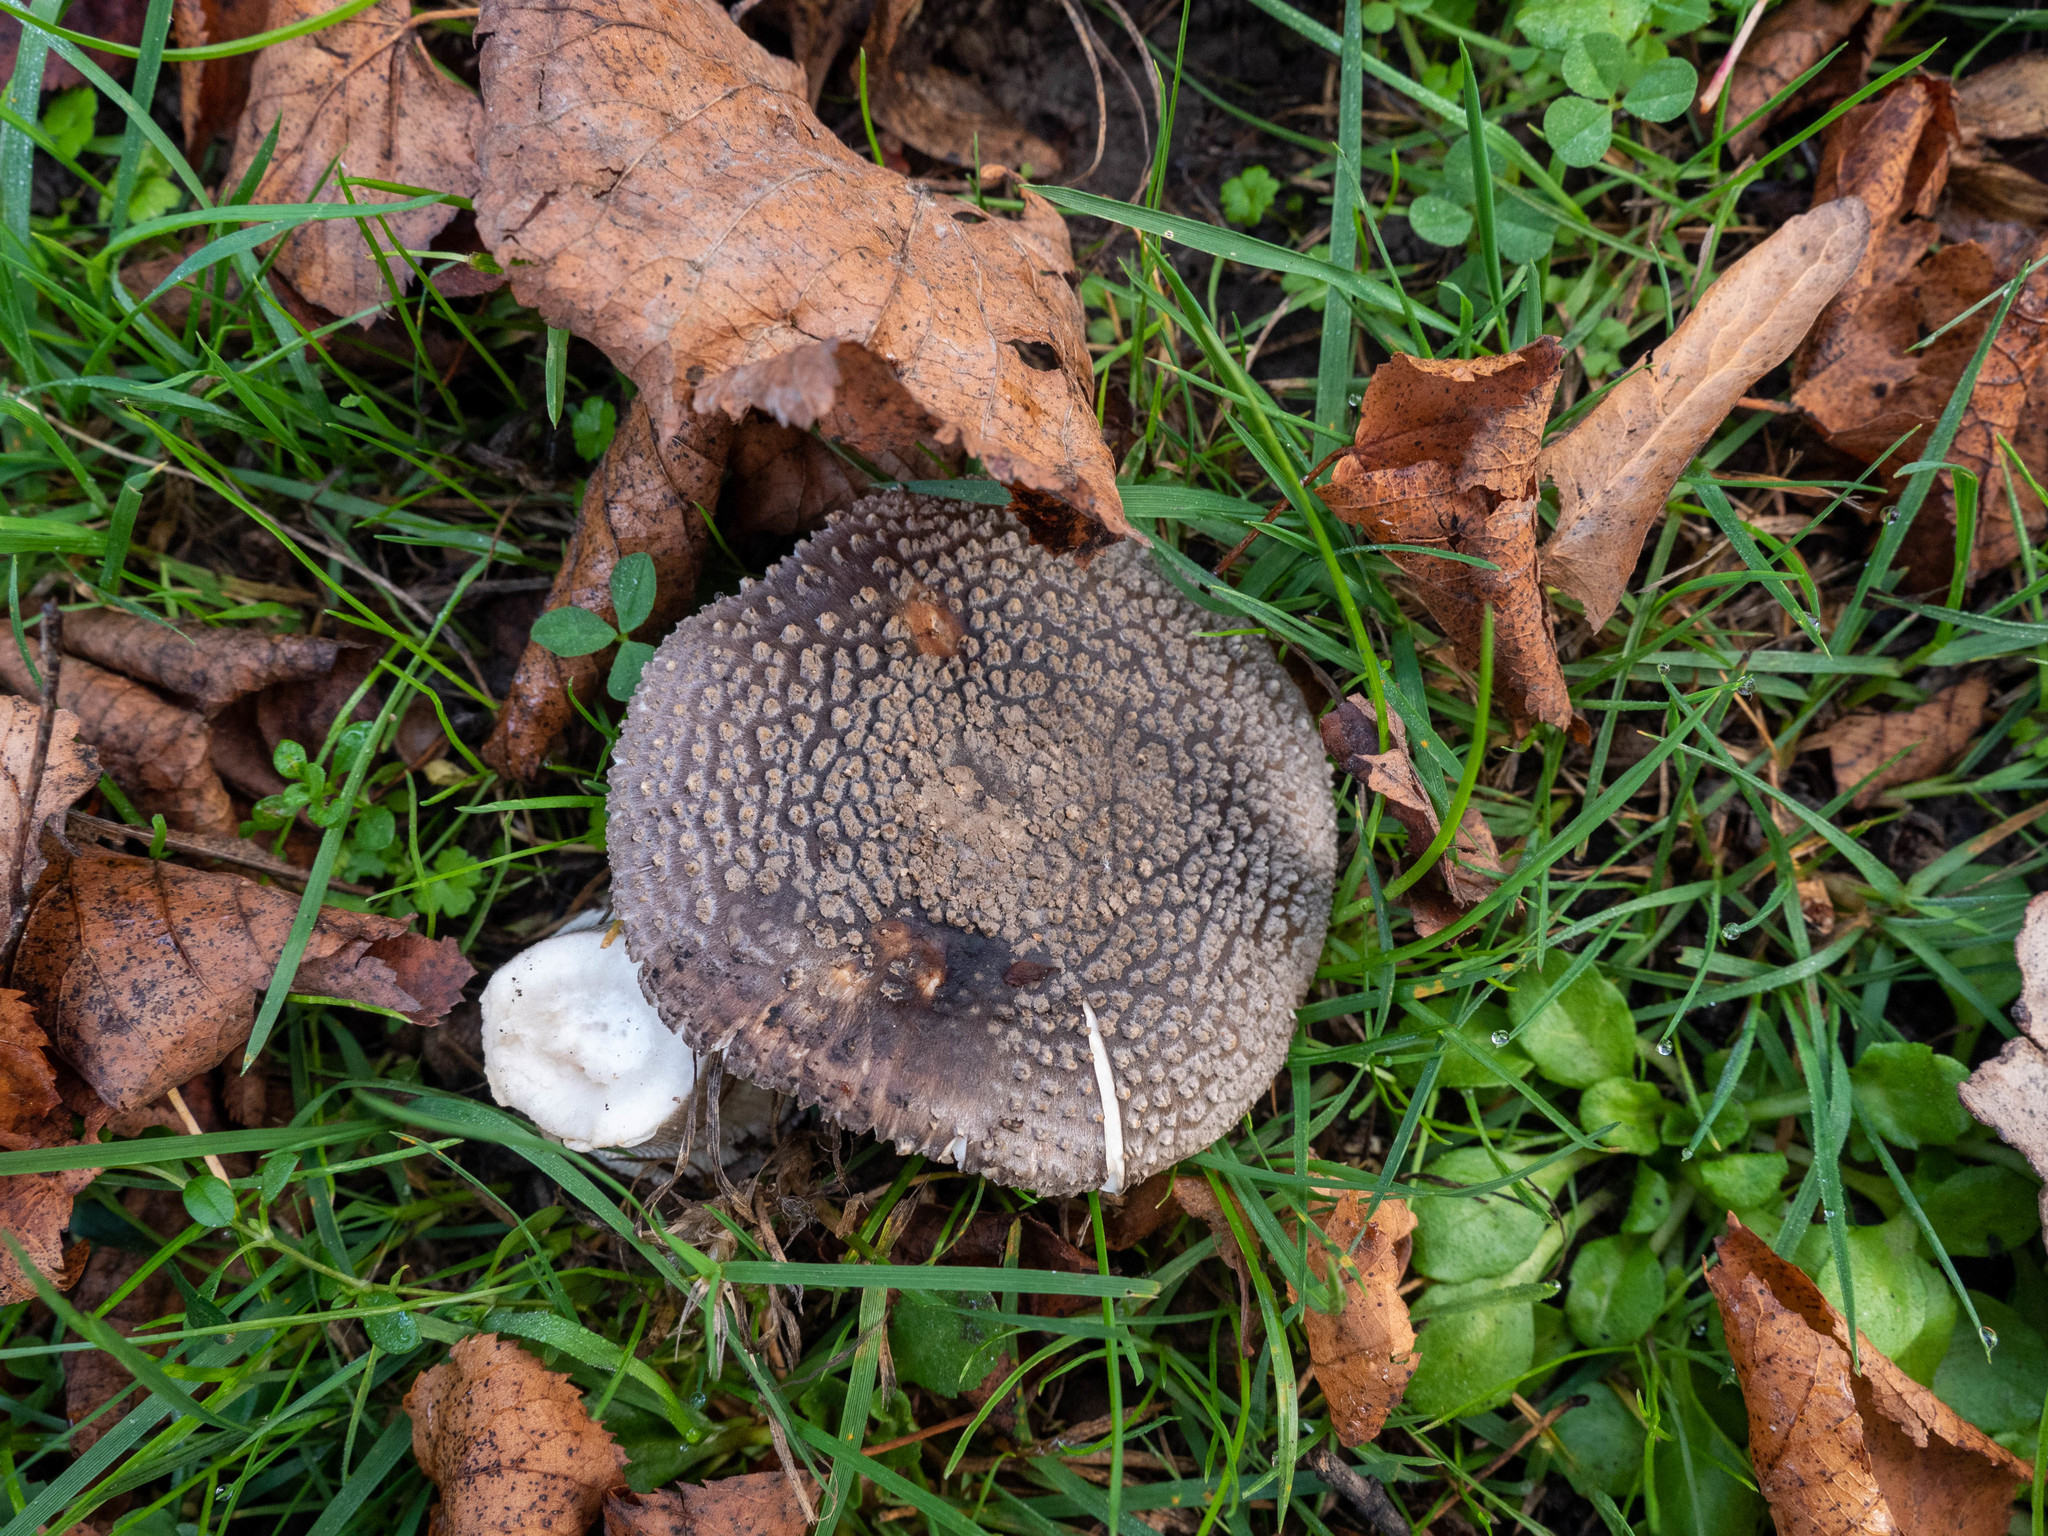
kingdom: Fungi
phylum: Basidiomycota
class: Agaricomycetes
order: Agaricales
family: Amanitaceae
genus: Amanita
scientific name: Amanita excelsa
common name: European false blusher
